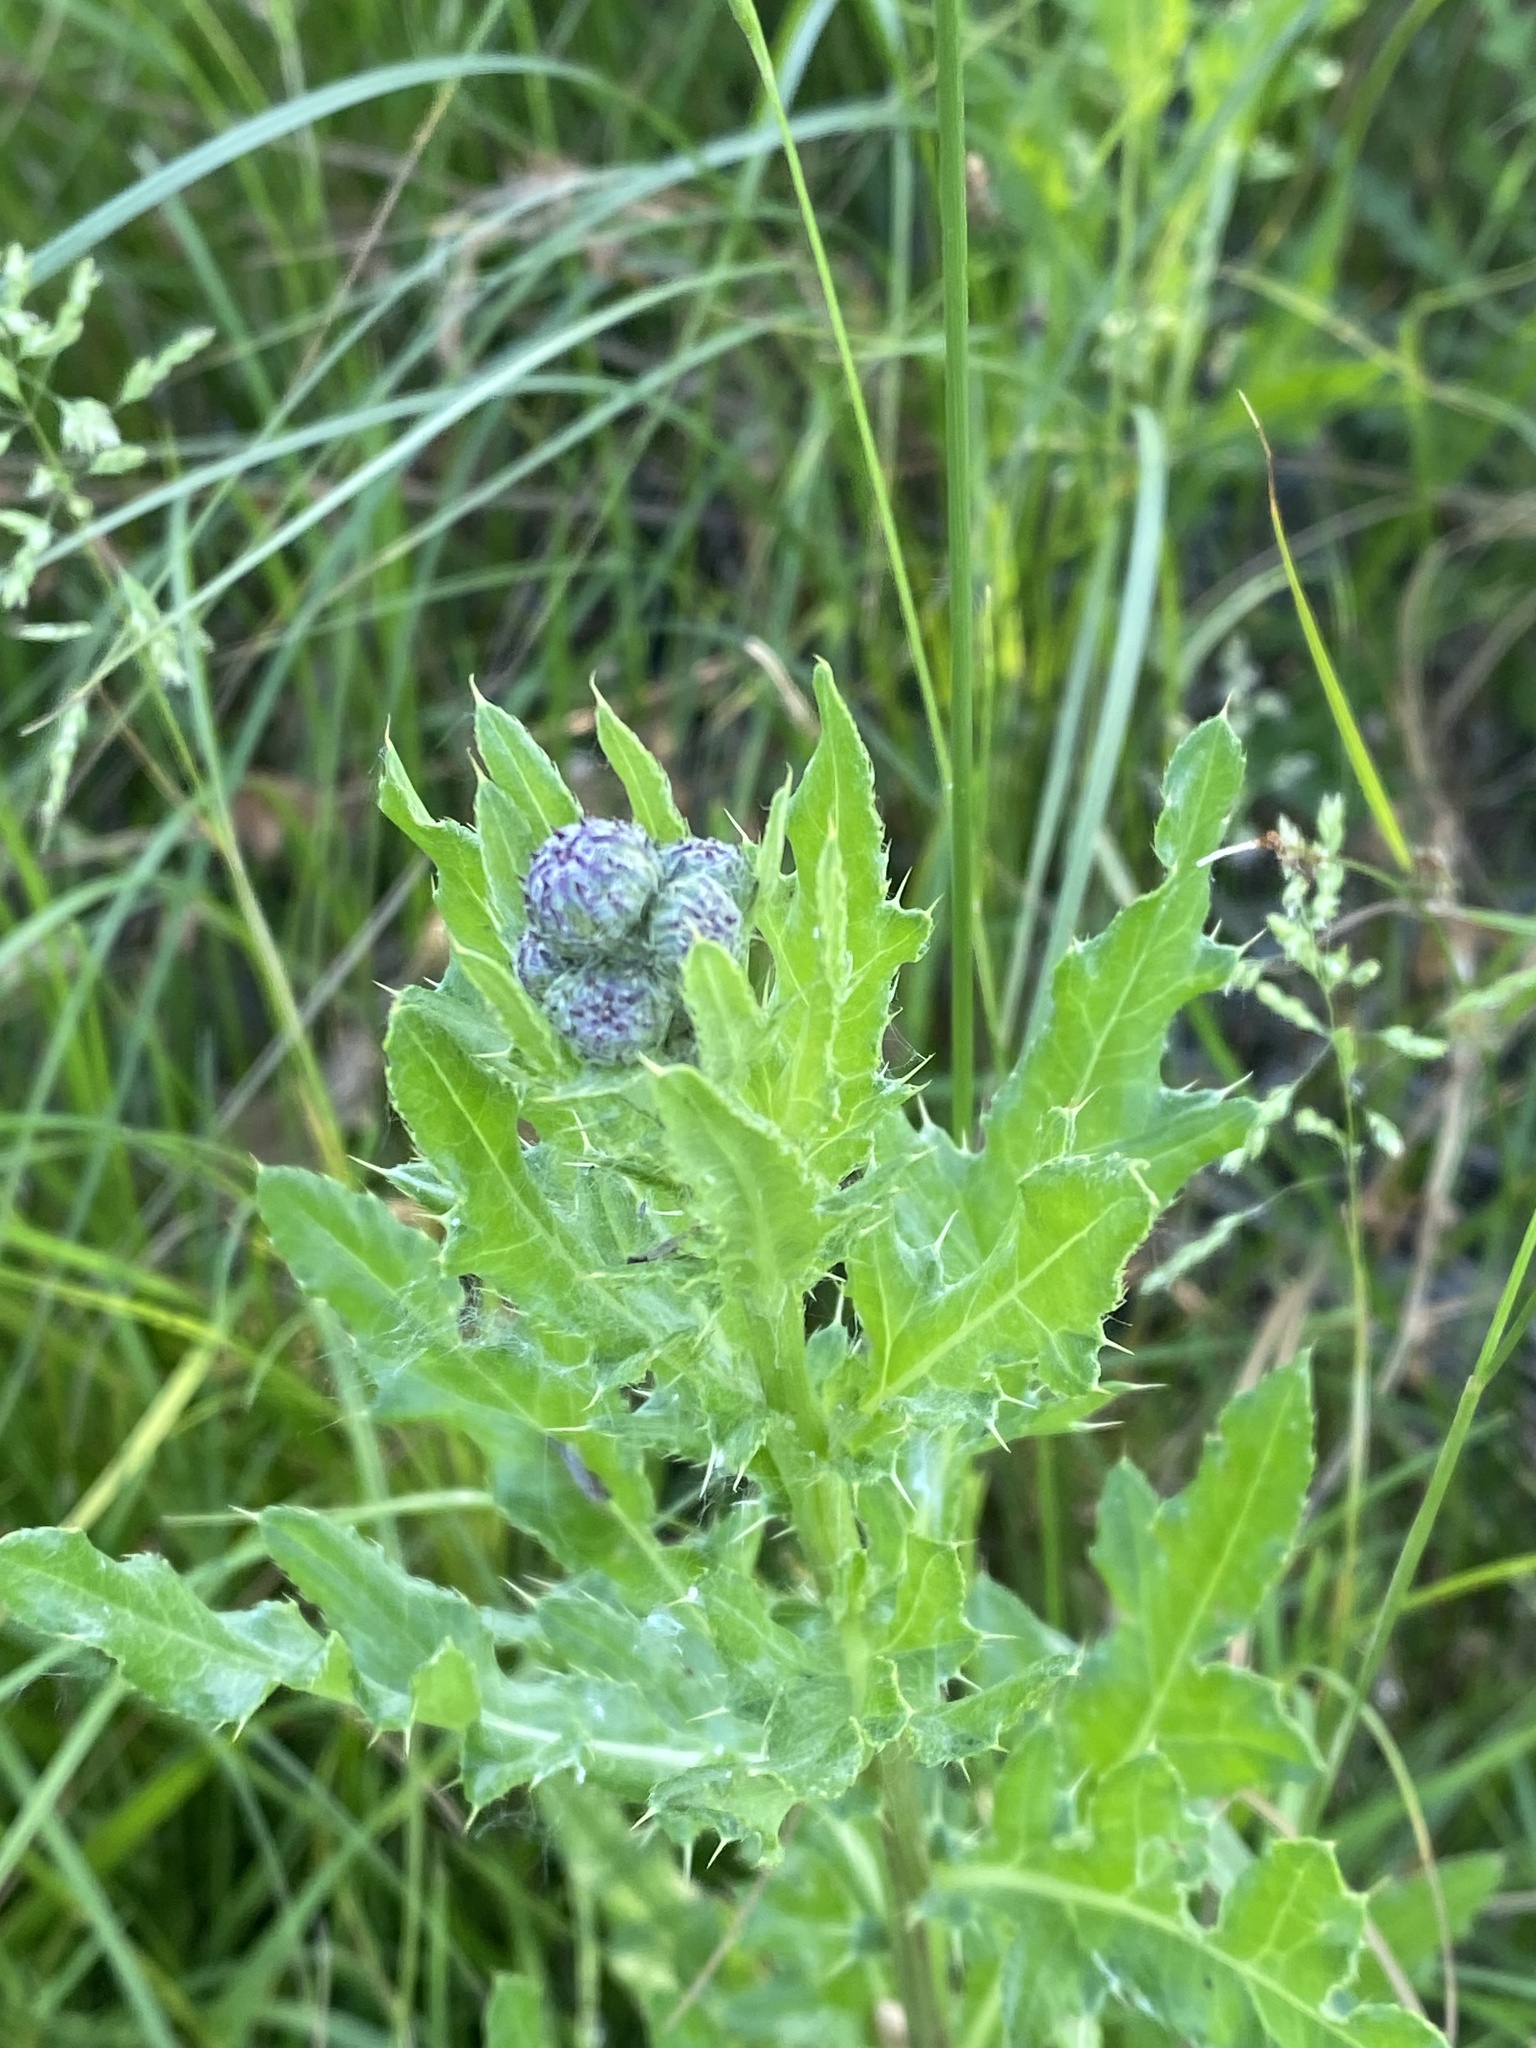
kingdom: Plantae
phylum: Tracheophyta
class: Magnoliopsida
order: Asterales
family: Asteraceae
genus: Cirsium
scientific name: Cirsium arvense
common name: Creeping thistle
